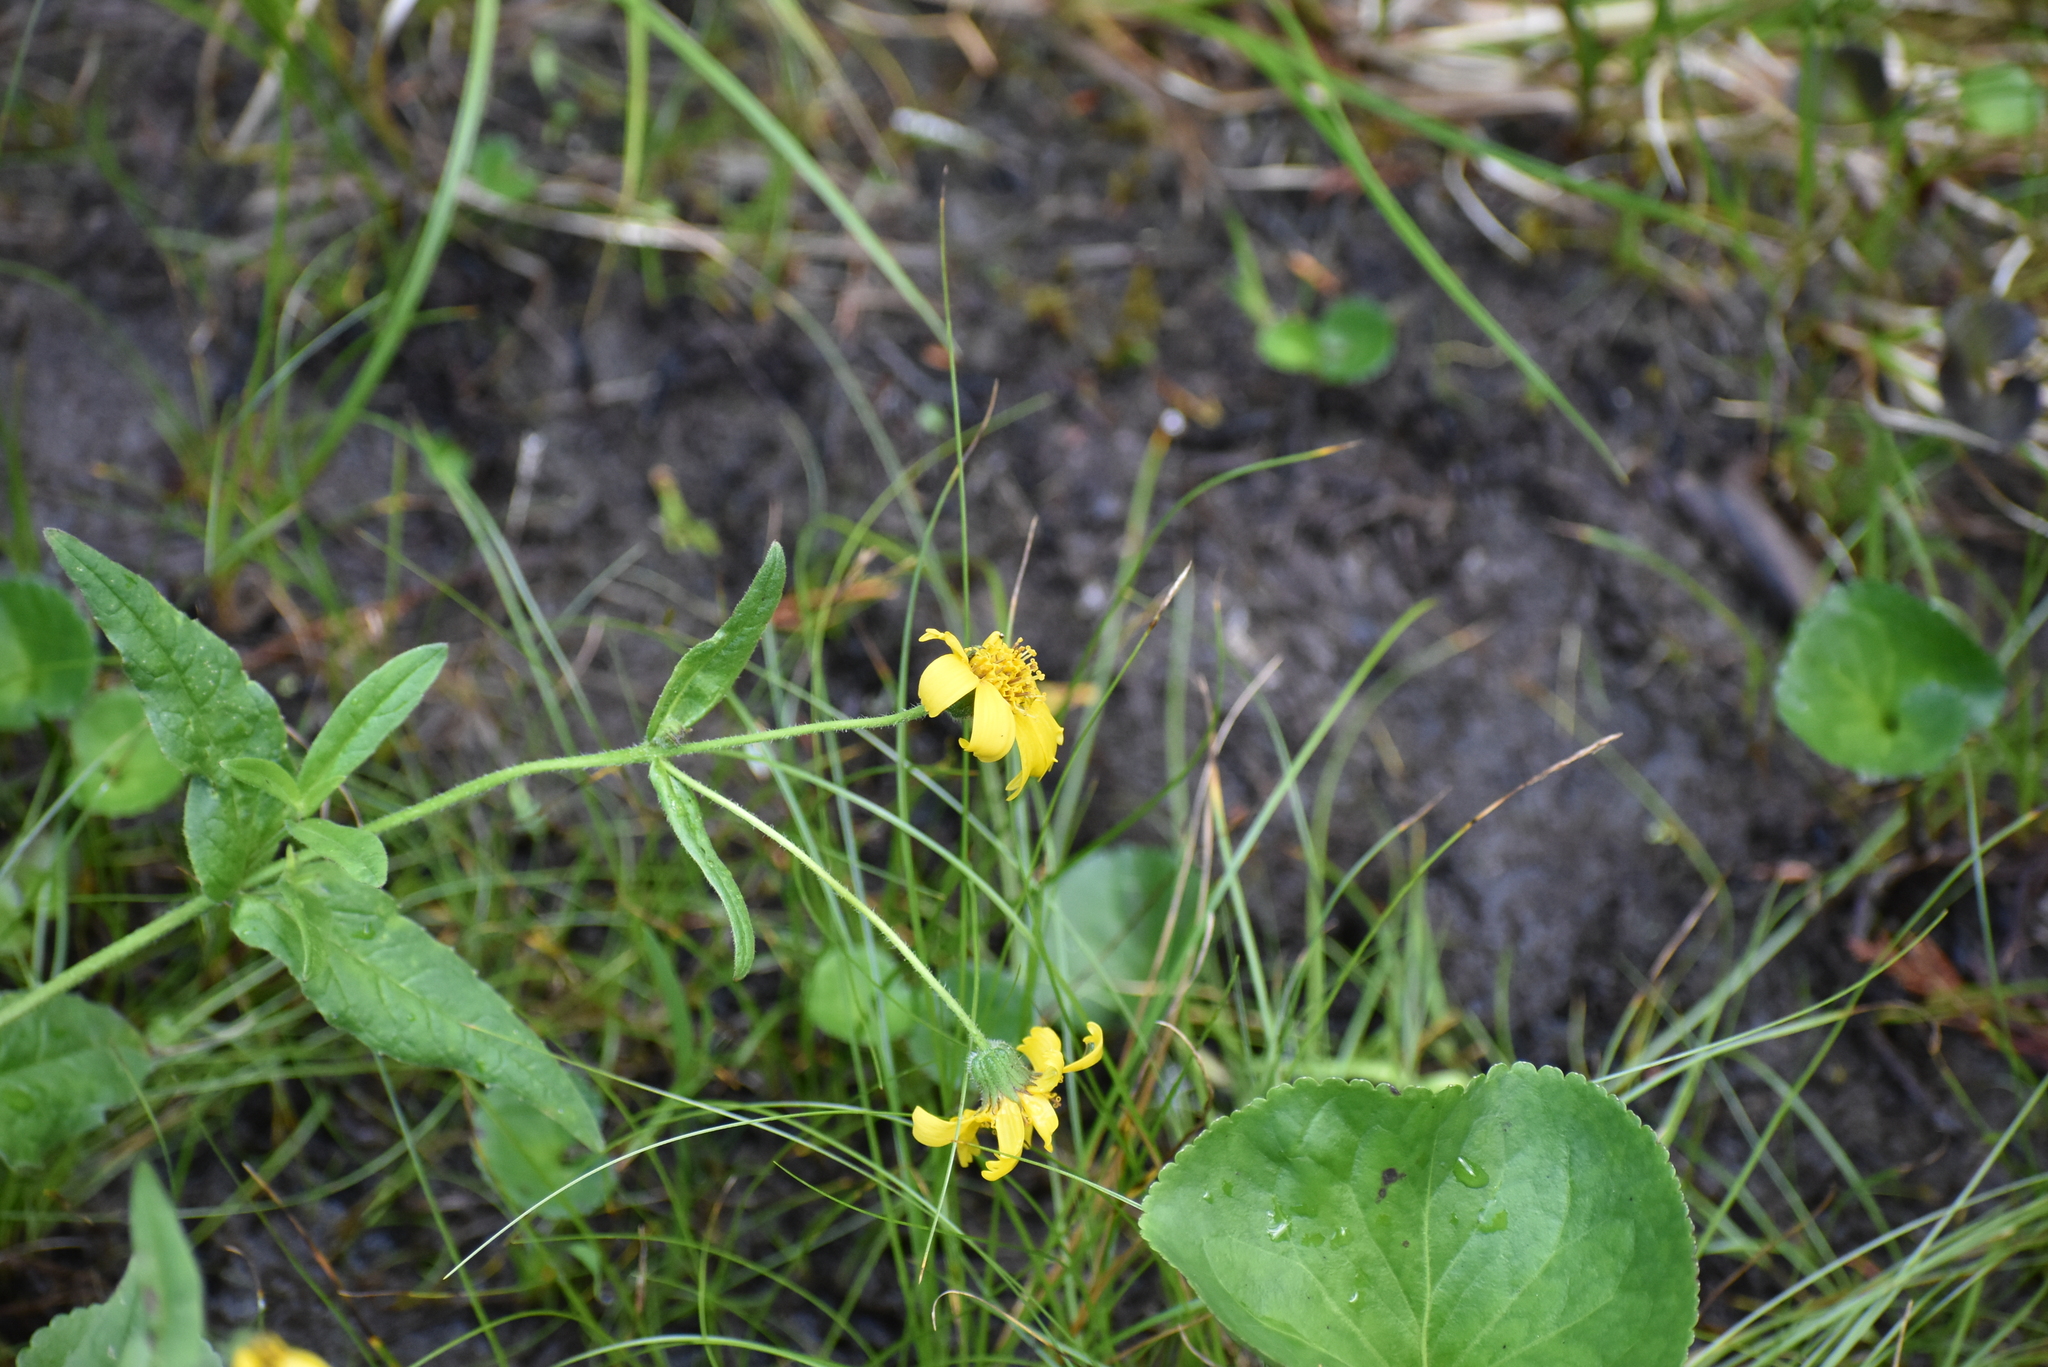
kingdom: Plantae
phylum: Tracheophyta
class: Magnoliopsida
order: Asterales
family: Asteraceae
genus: Arnica
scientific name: Arnica latifolia
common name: Arnica
